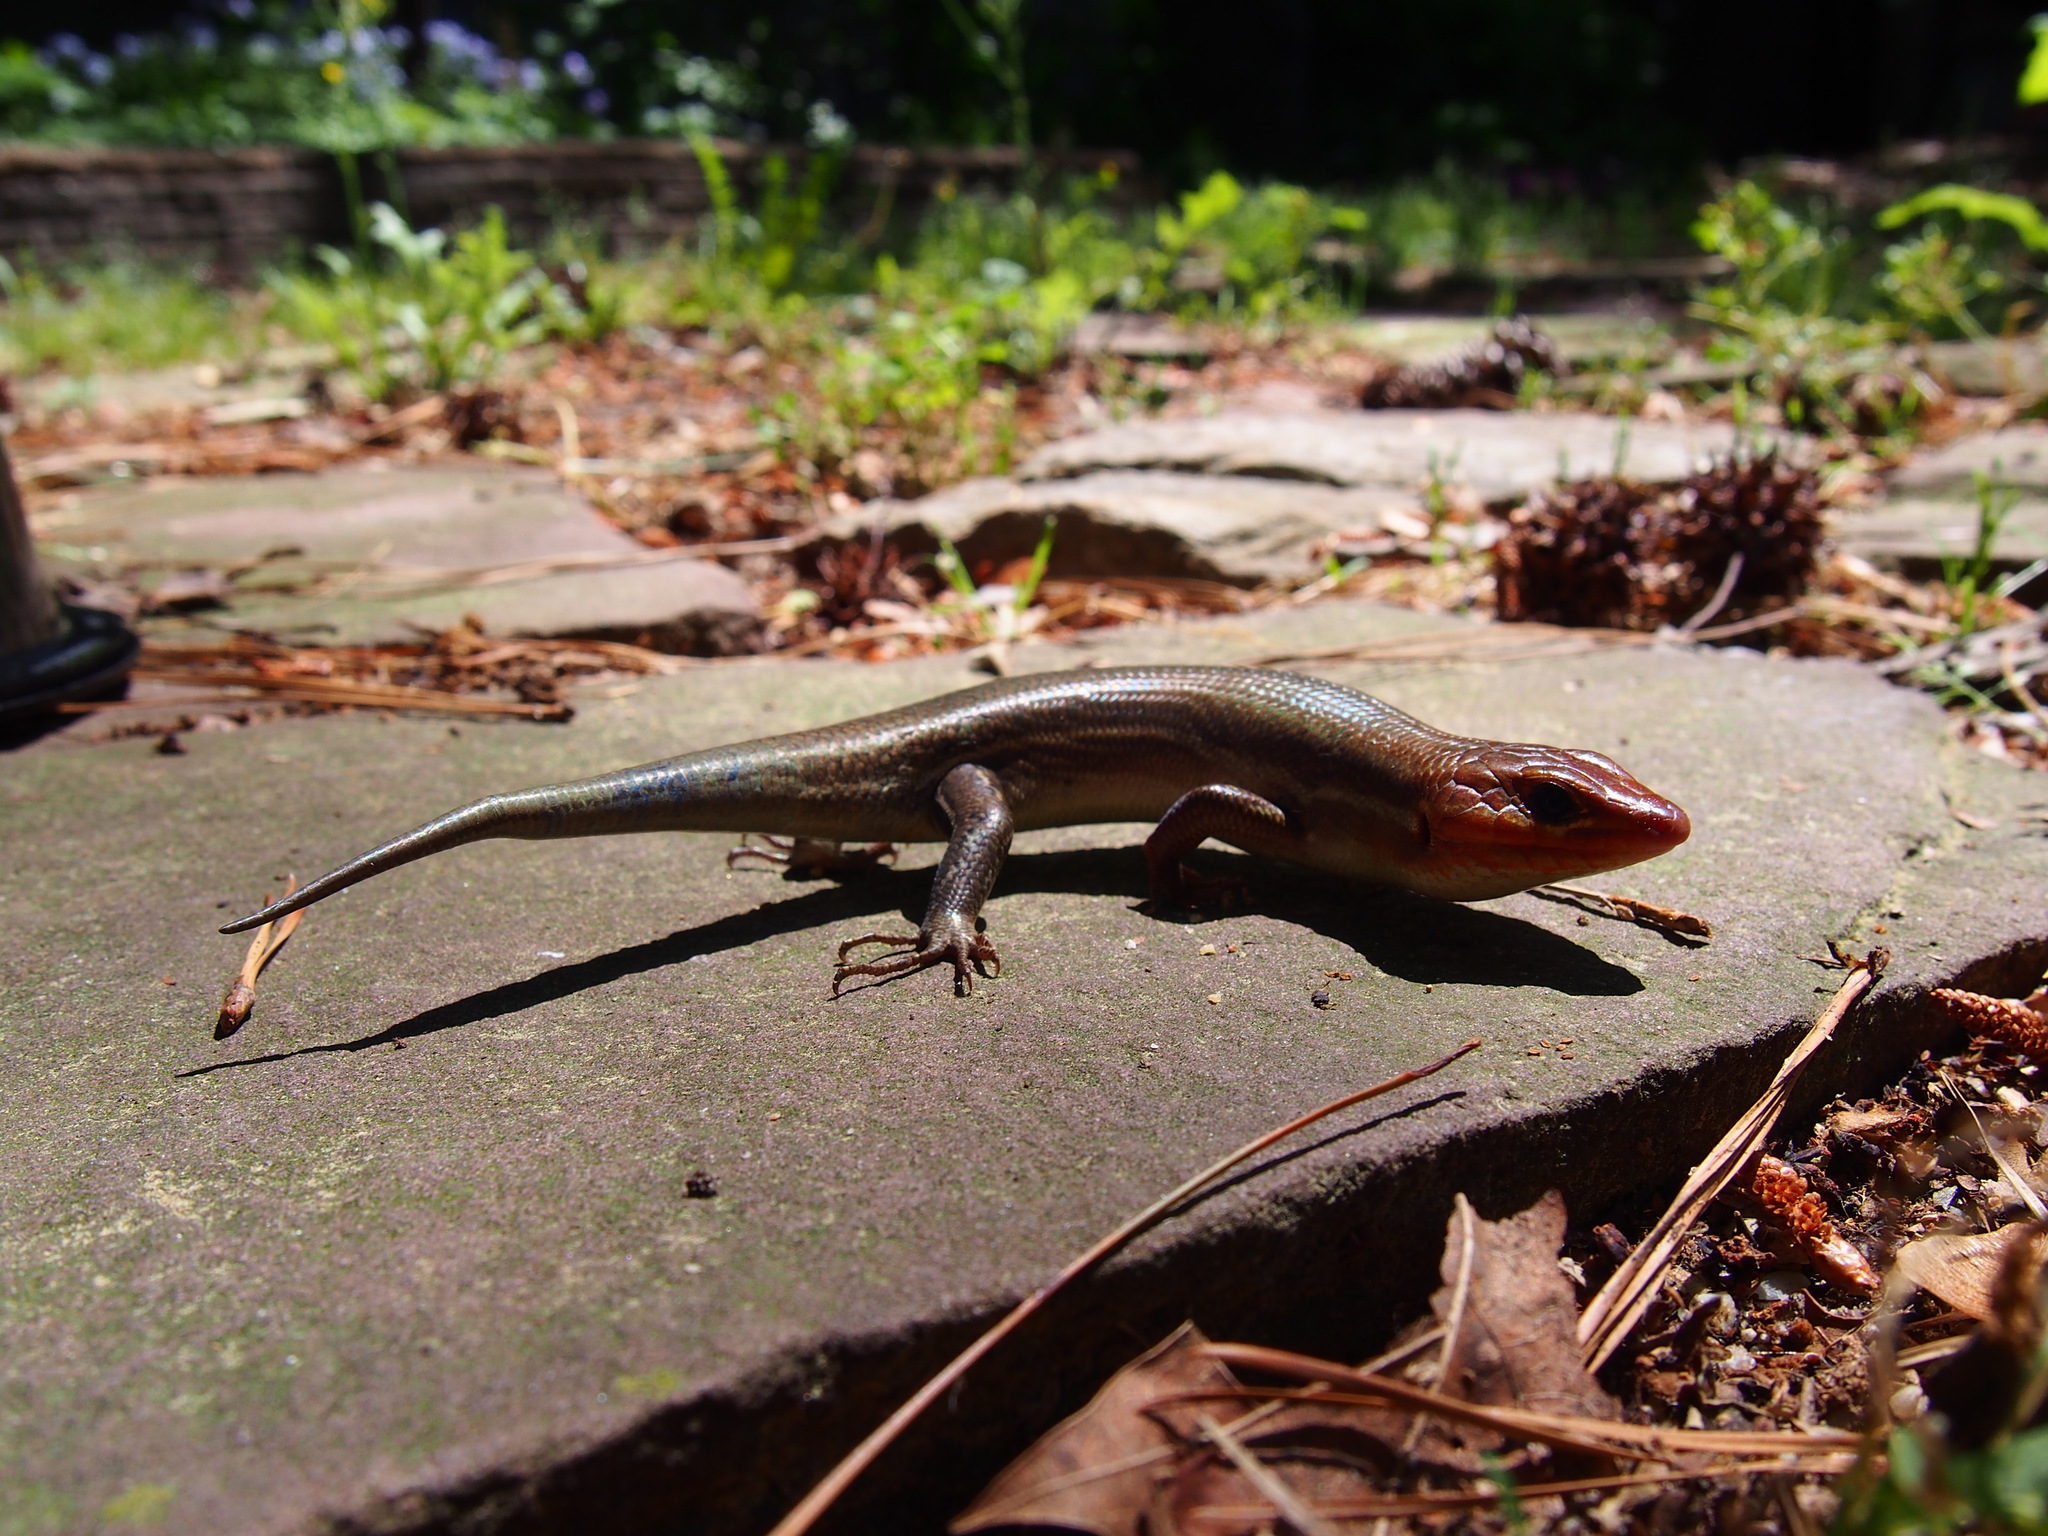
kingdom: Animalia
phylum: Chordata
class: Squamata
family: Scincidae
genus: Plestiodon
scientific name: Plestiodon laticeps
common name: Broadhead skink
